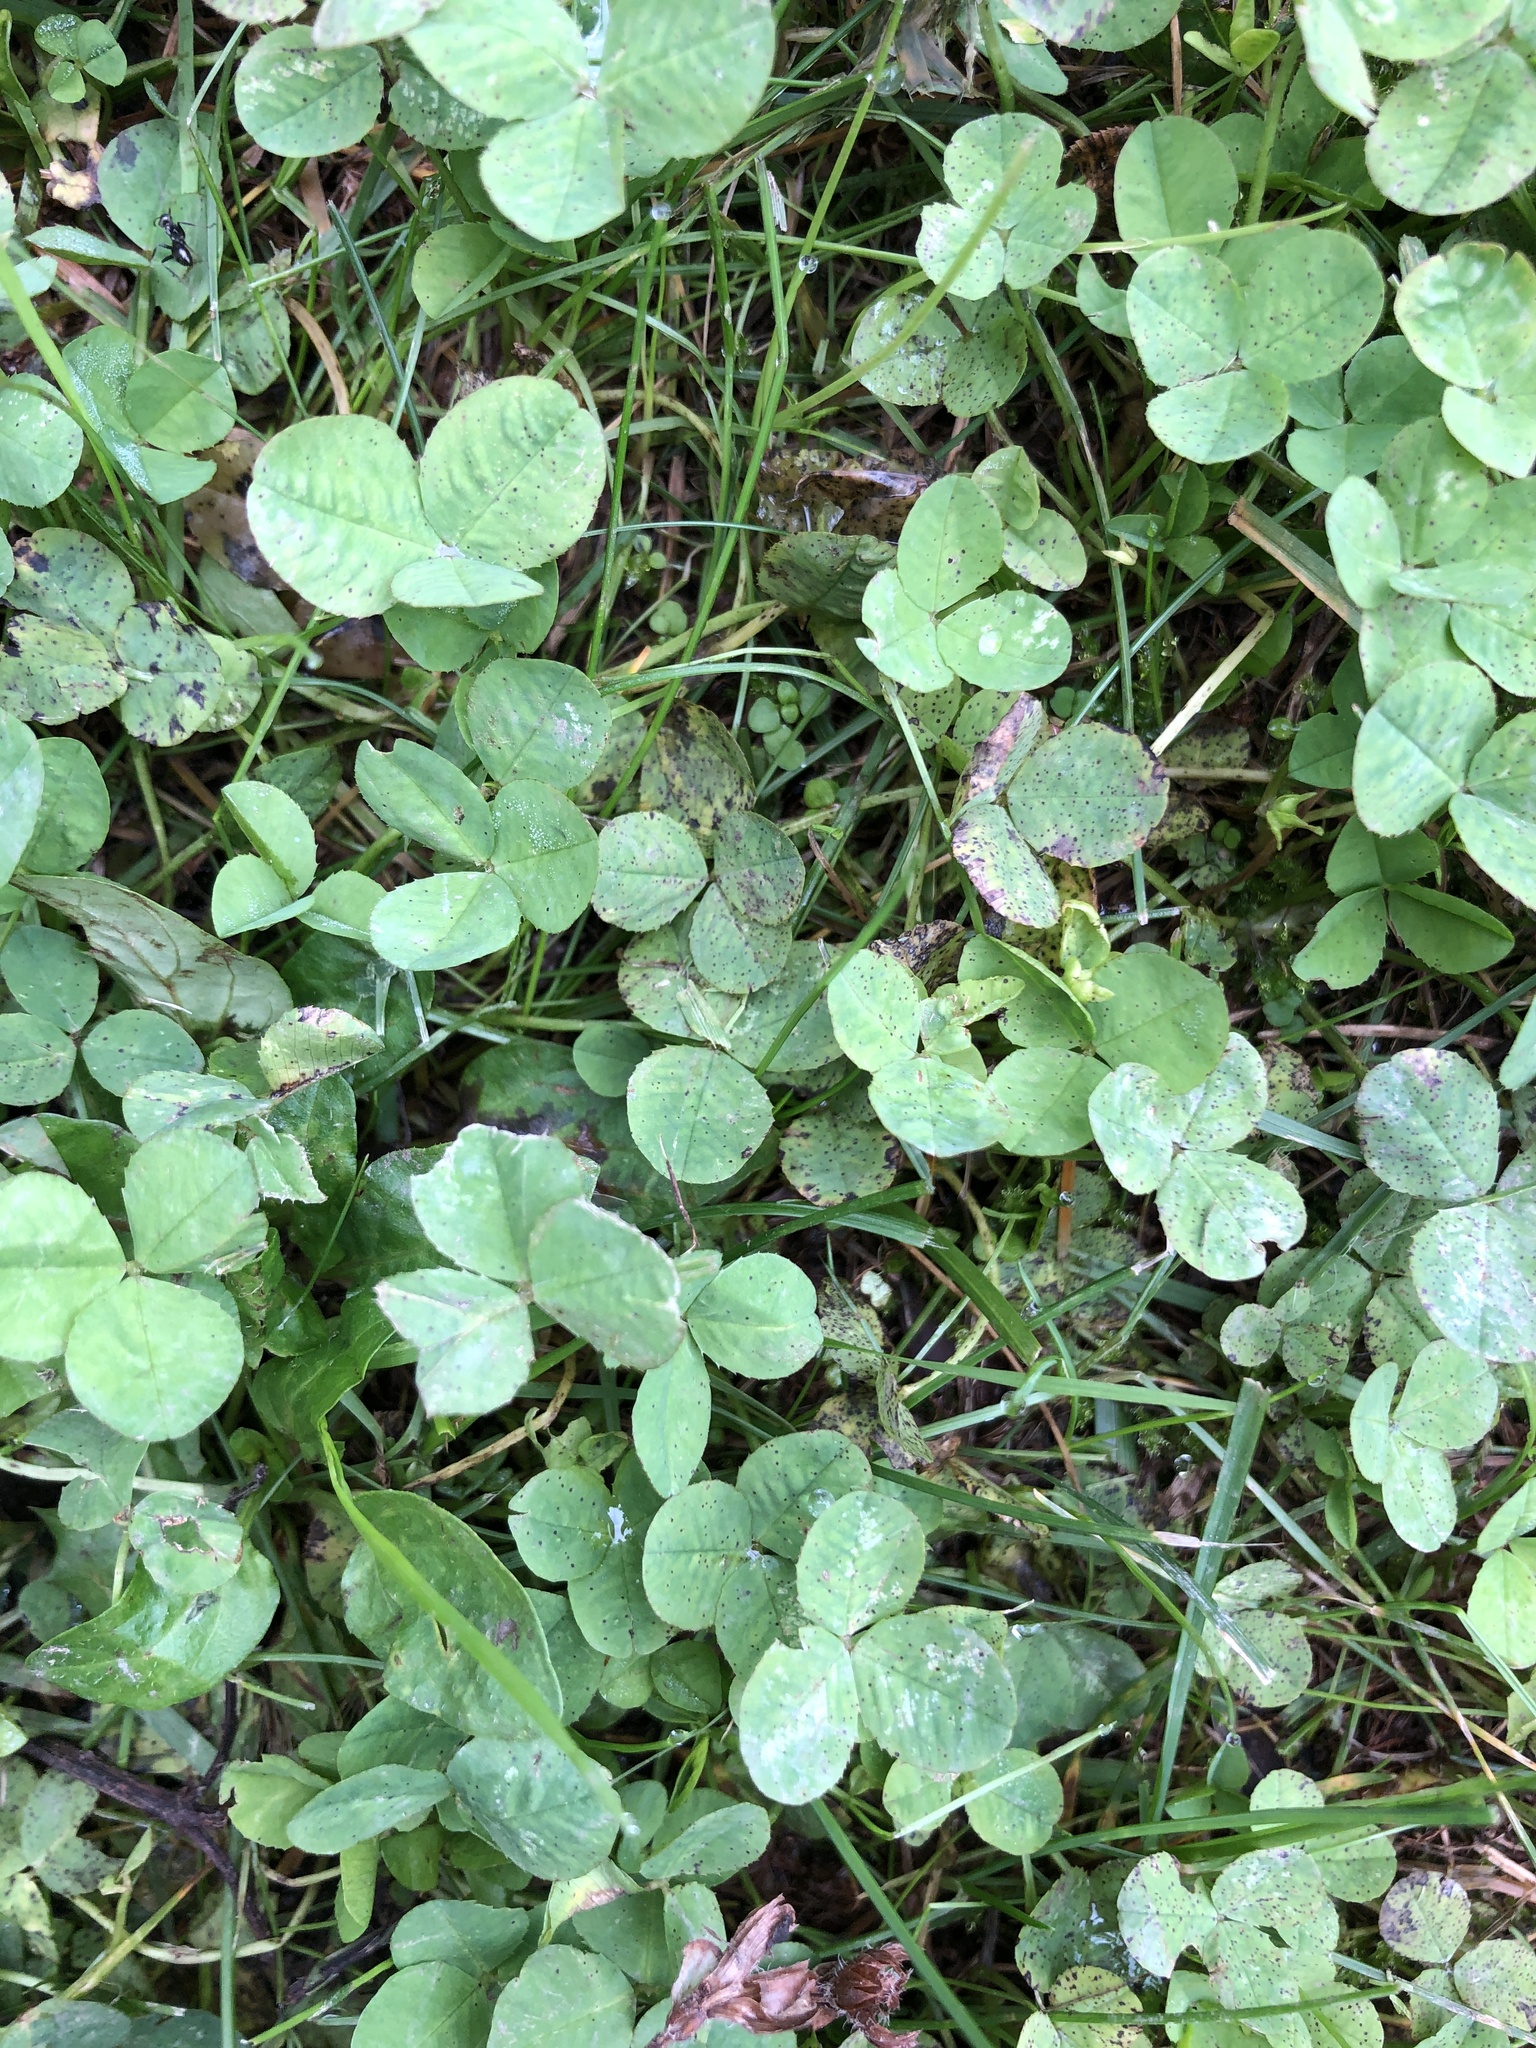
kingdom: Plantae
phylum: Tracheophyta
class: Magnoliopsida
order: Fabales
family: Fabaceae
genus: Trifolium
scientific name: Trifolium repens
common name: White clover
